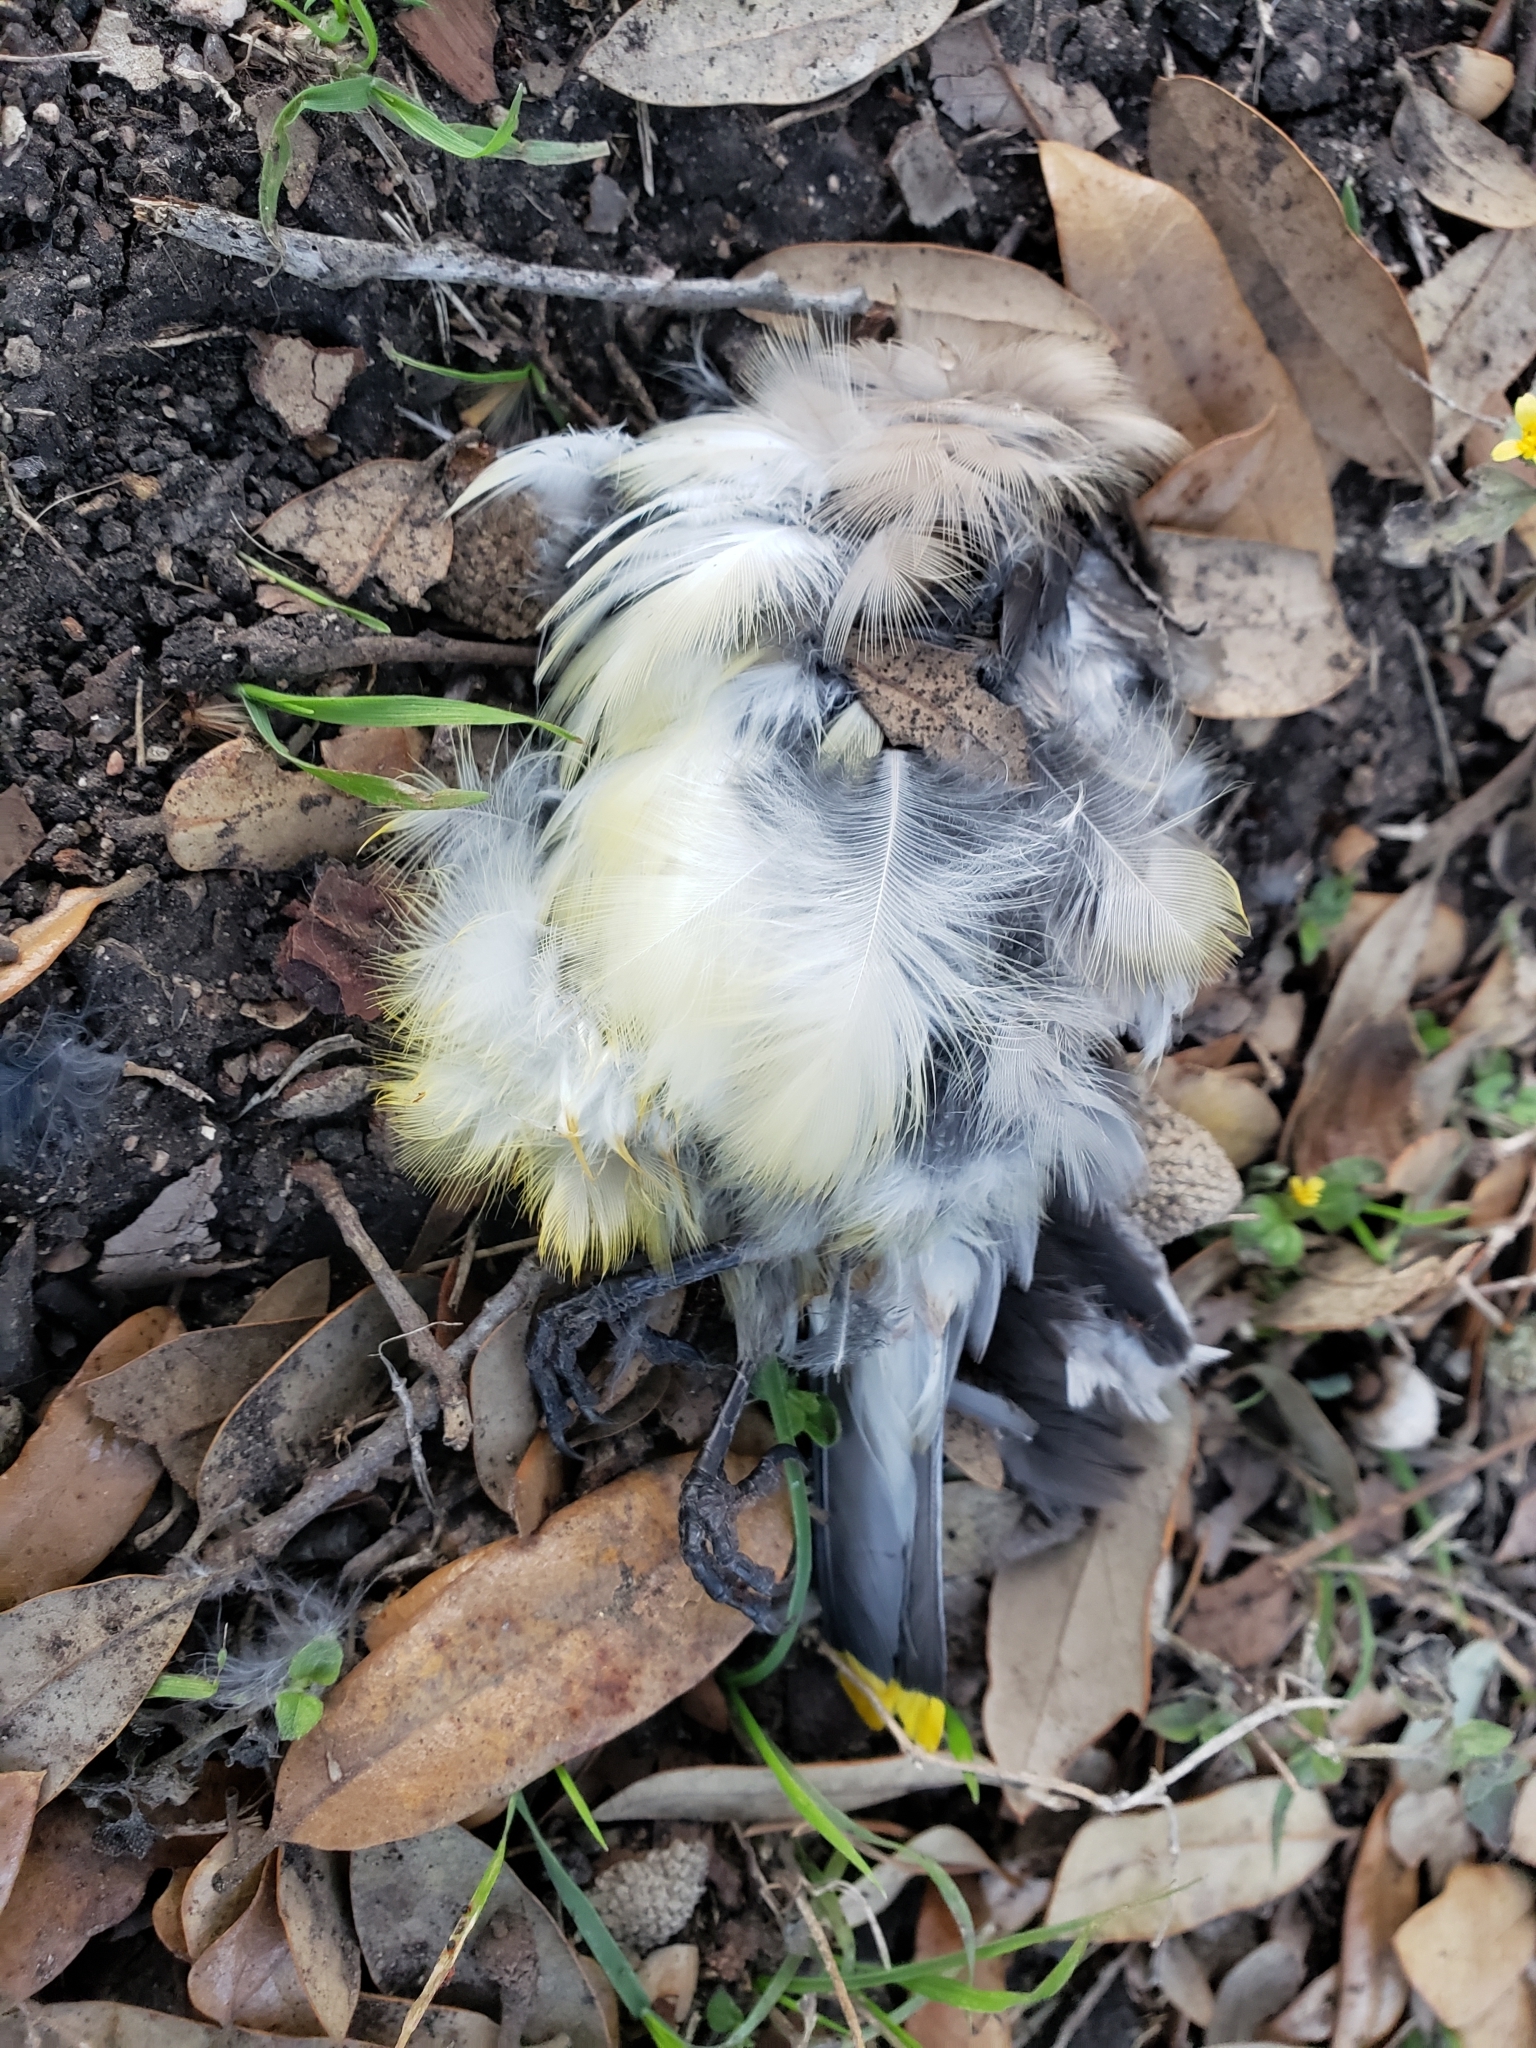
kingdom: Animalia
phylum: Chordata
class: Aves
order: Passeriformes
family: Bombycillidae
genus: Bombycilla
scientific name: Bombycilla cedrorum
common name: Cedar waxwing
